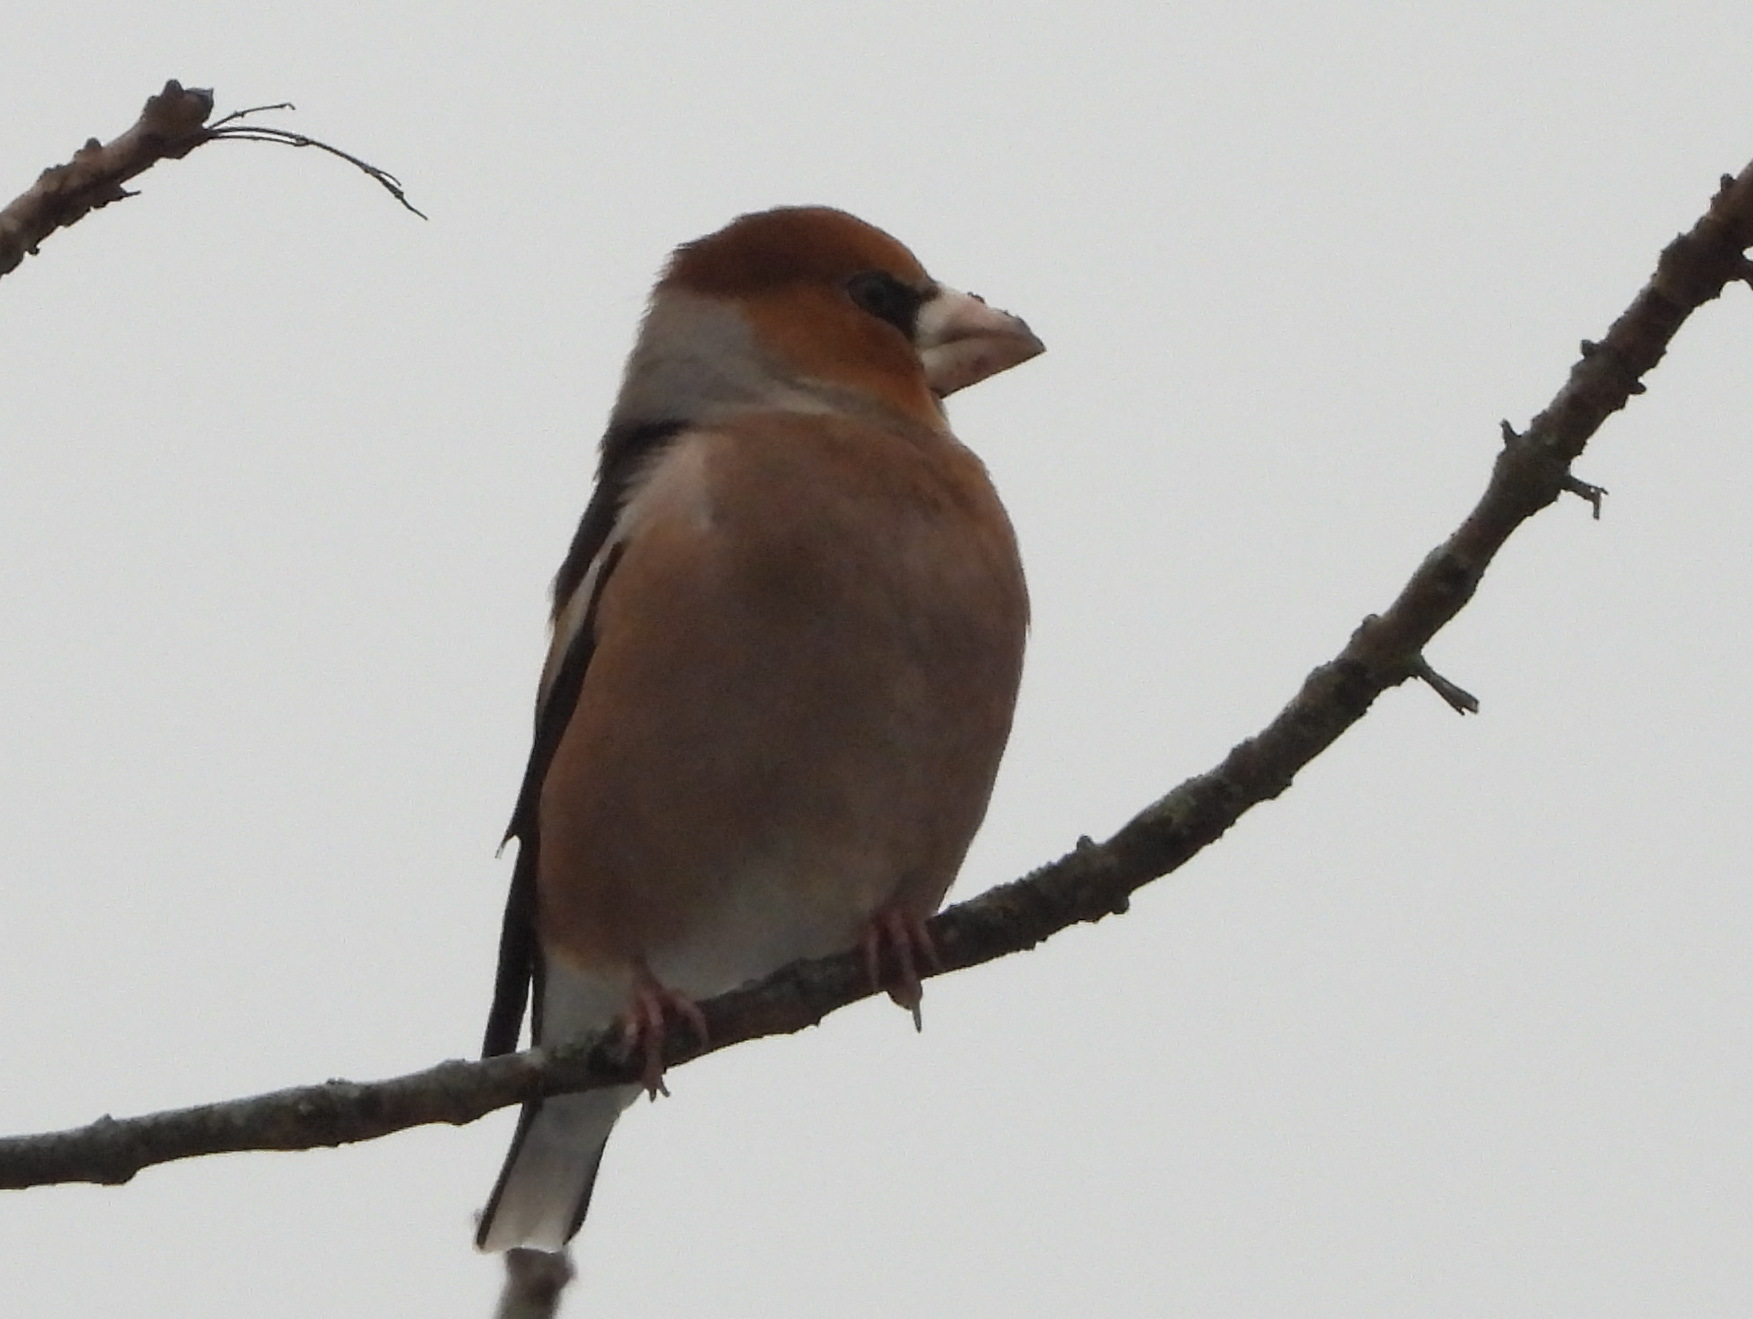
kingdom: Animalia
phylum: Chordata
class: Aves
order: Passeriformes
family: Fringillidae
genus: Coccothraustes
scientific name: Coccothraustes coccothraustes
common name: Hawfinch
